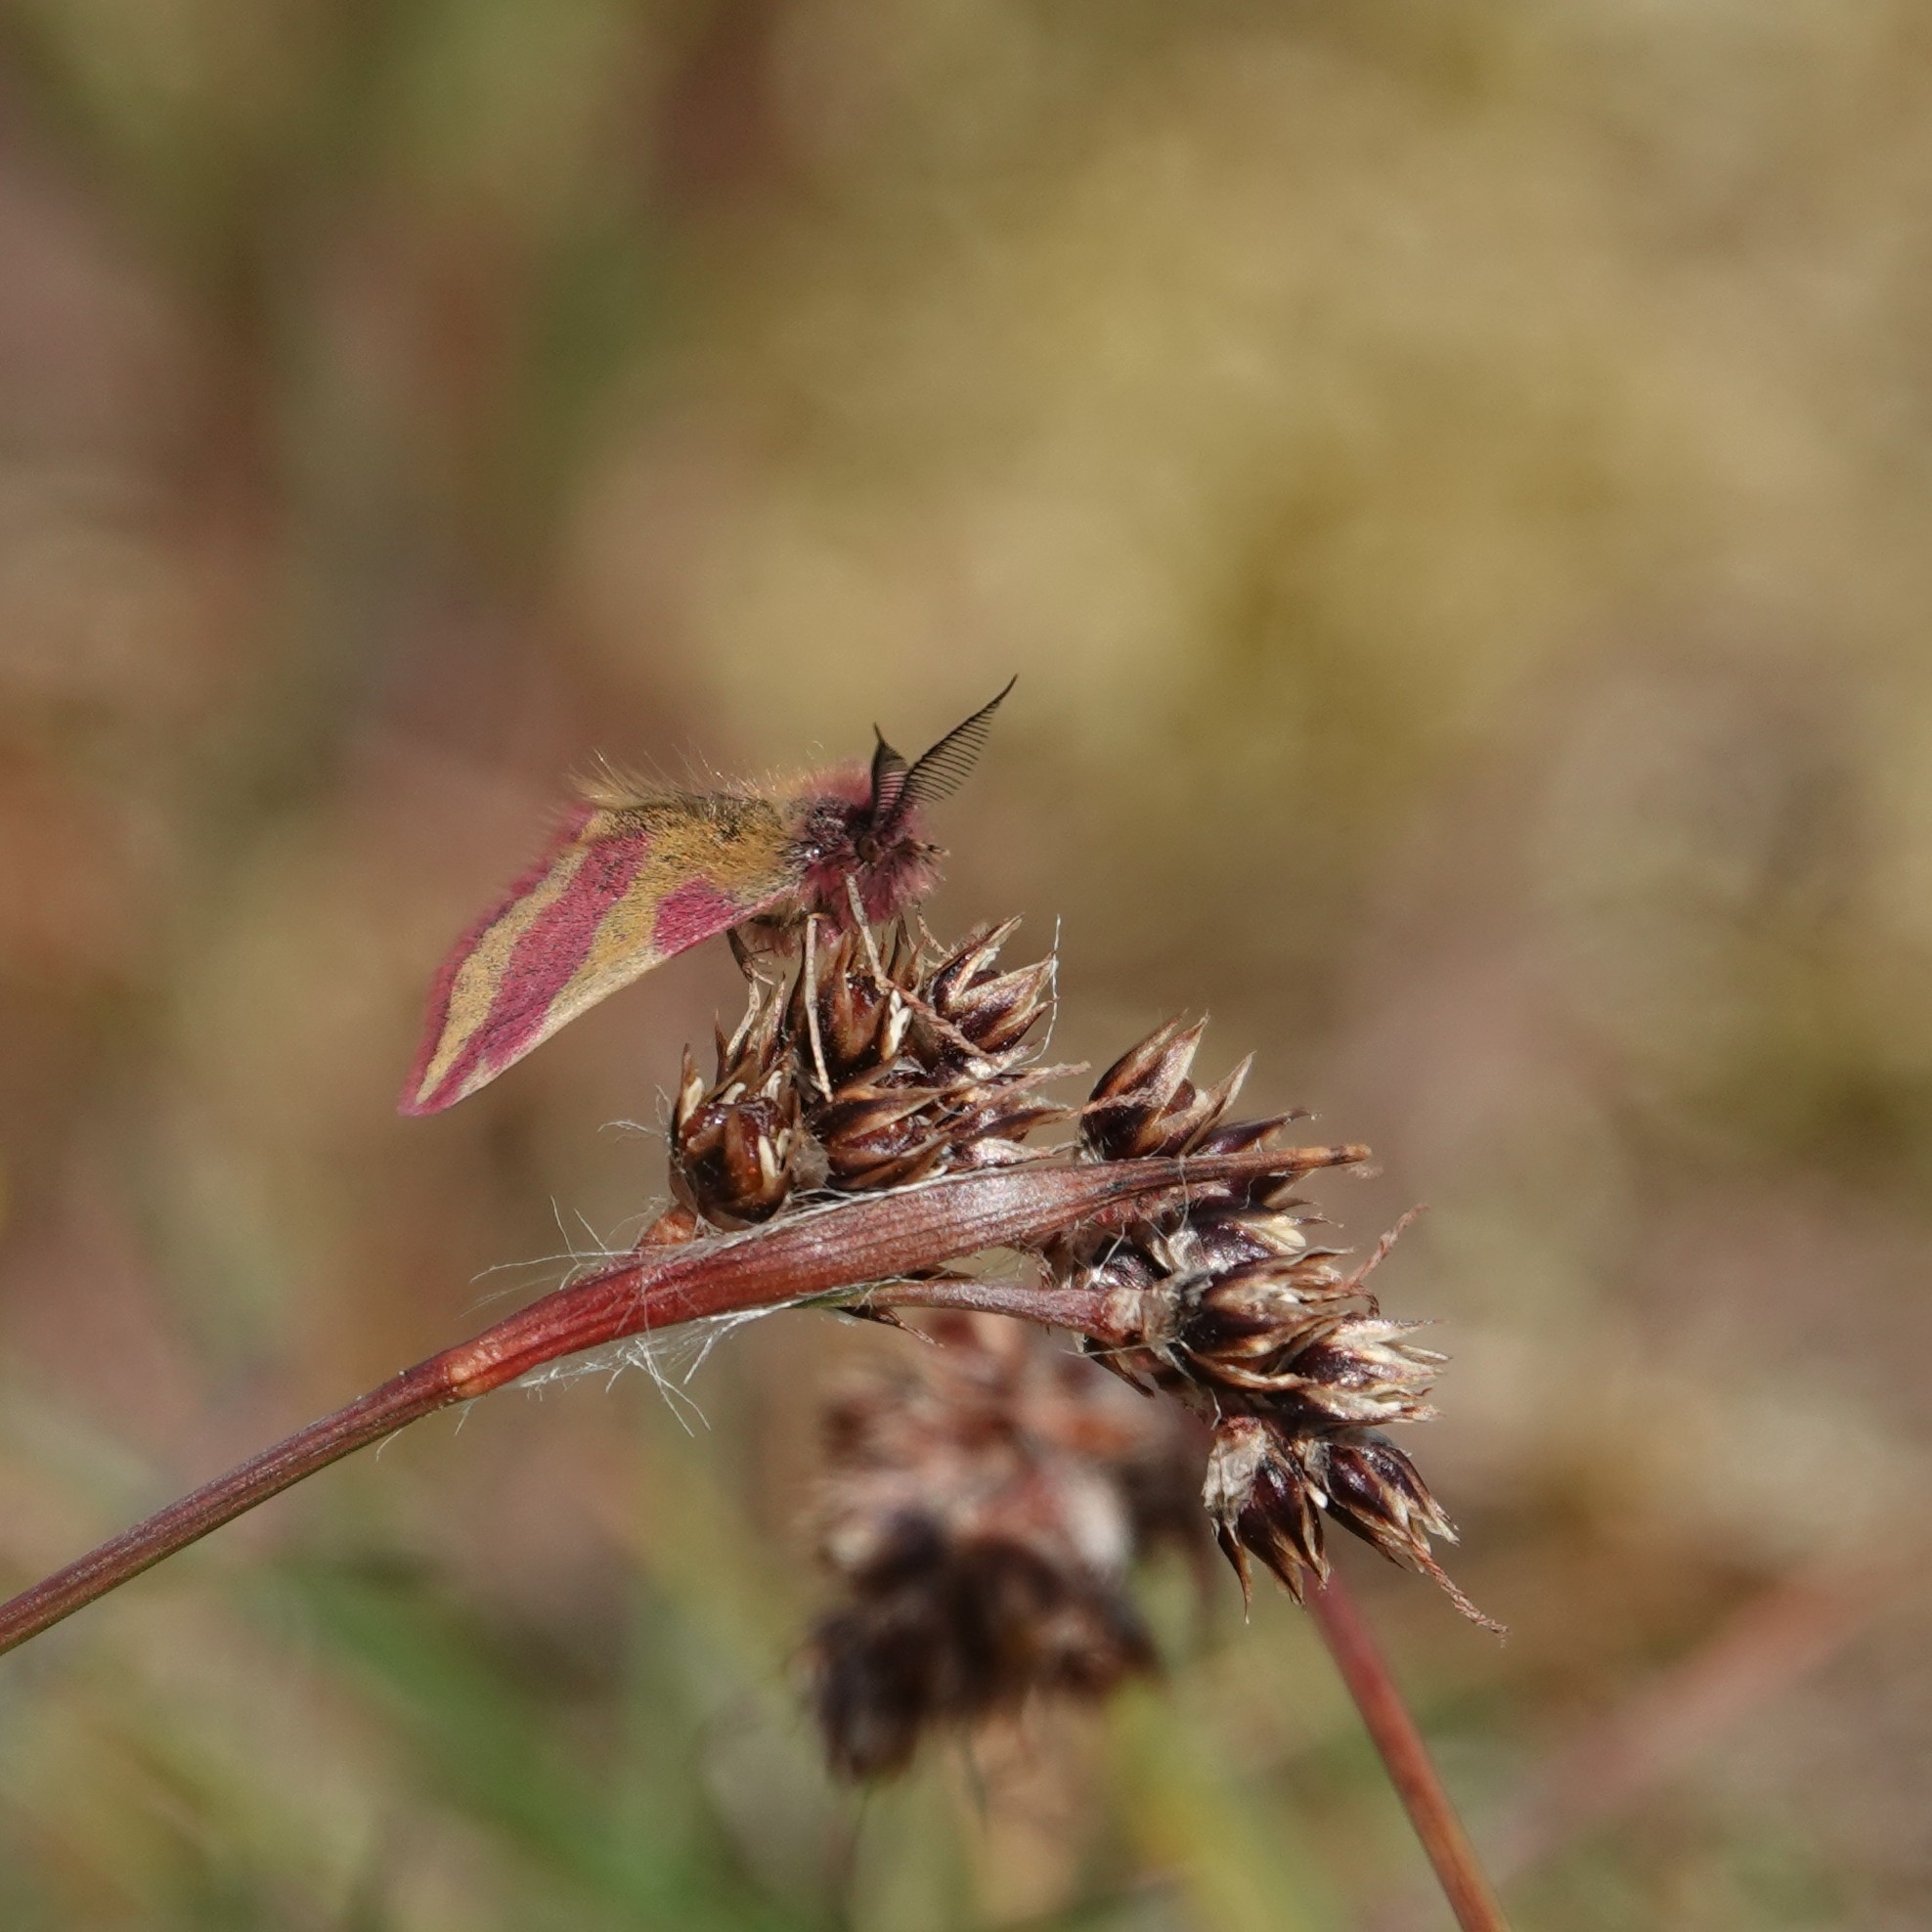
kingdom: Animalia
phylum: Arthropoda
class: Insecta
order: Lepidoptera
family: Geometridae
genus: Lythria
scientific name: Lythria cruentaria
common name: Purple-barred yellow
